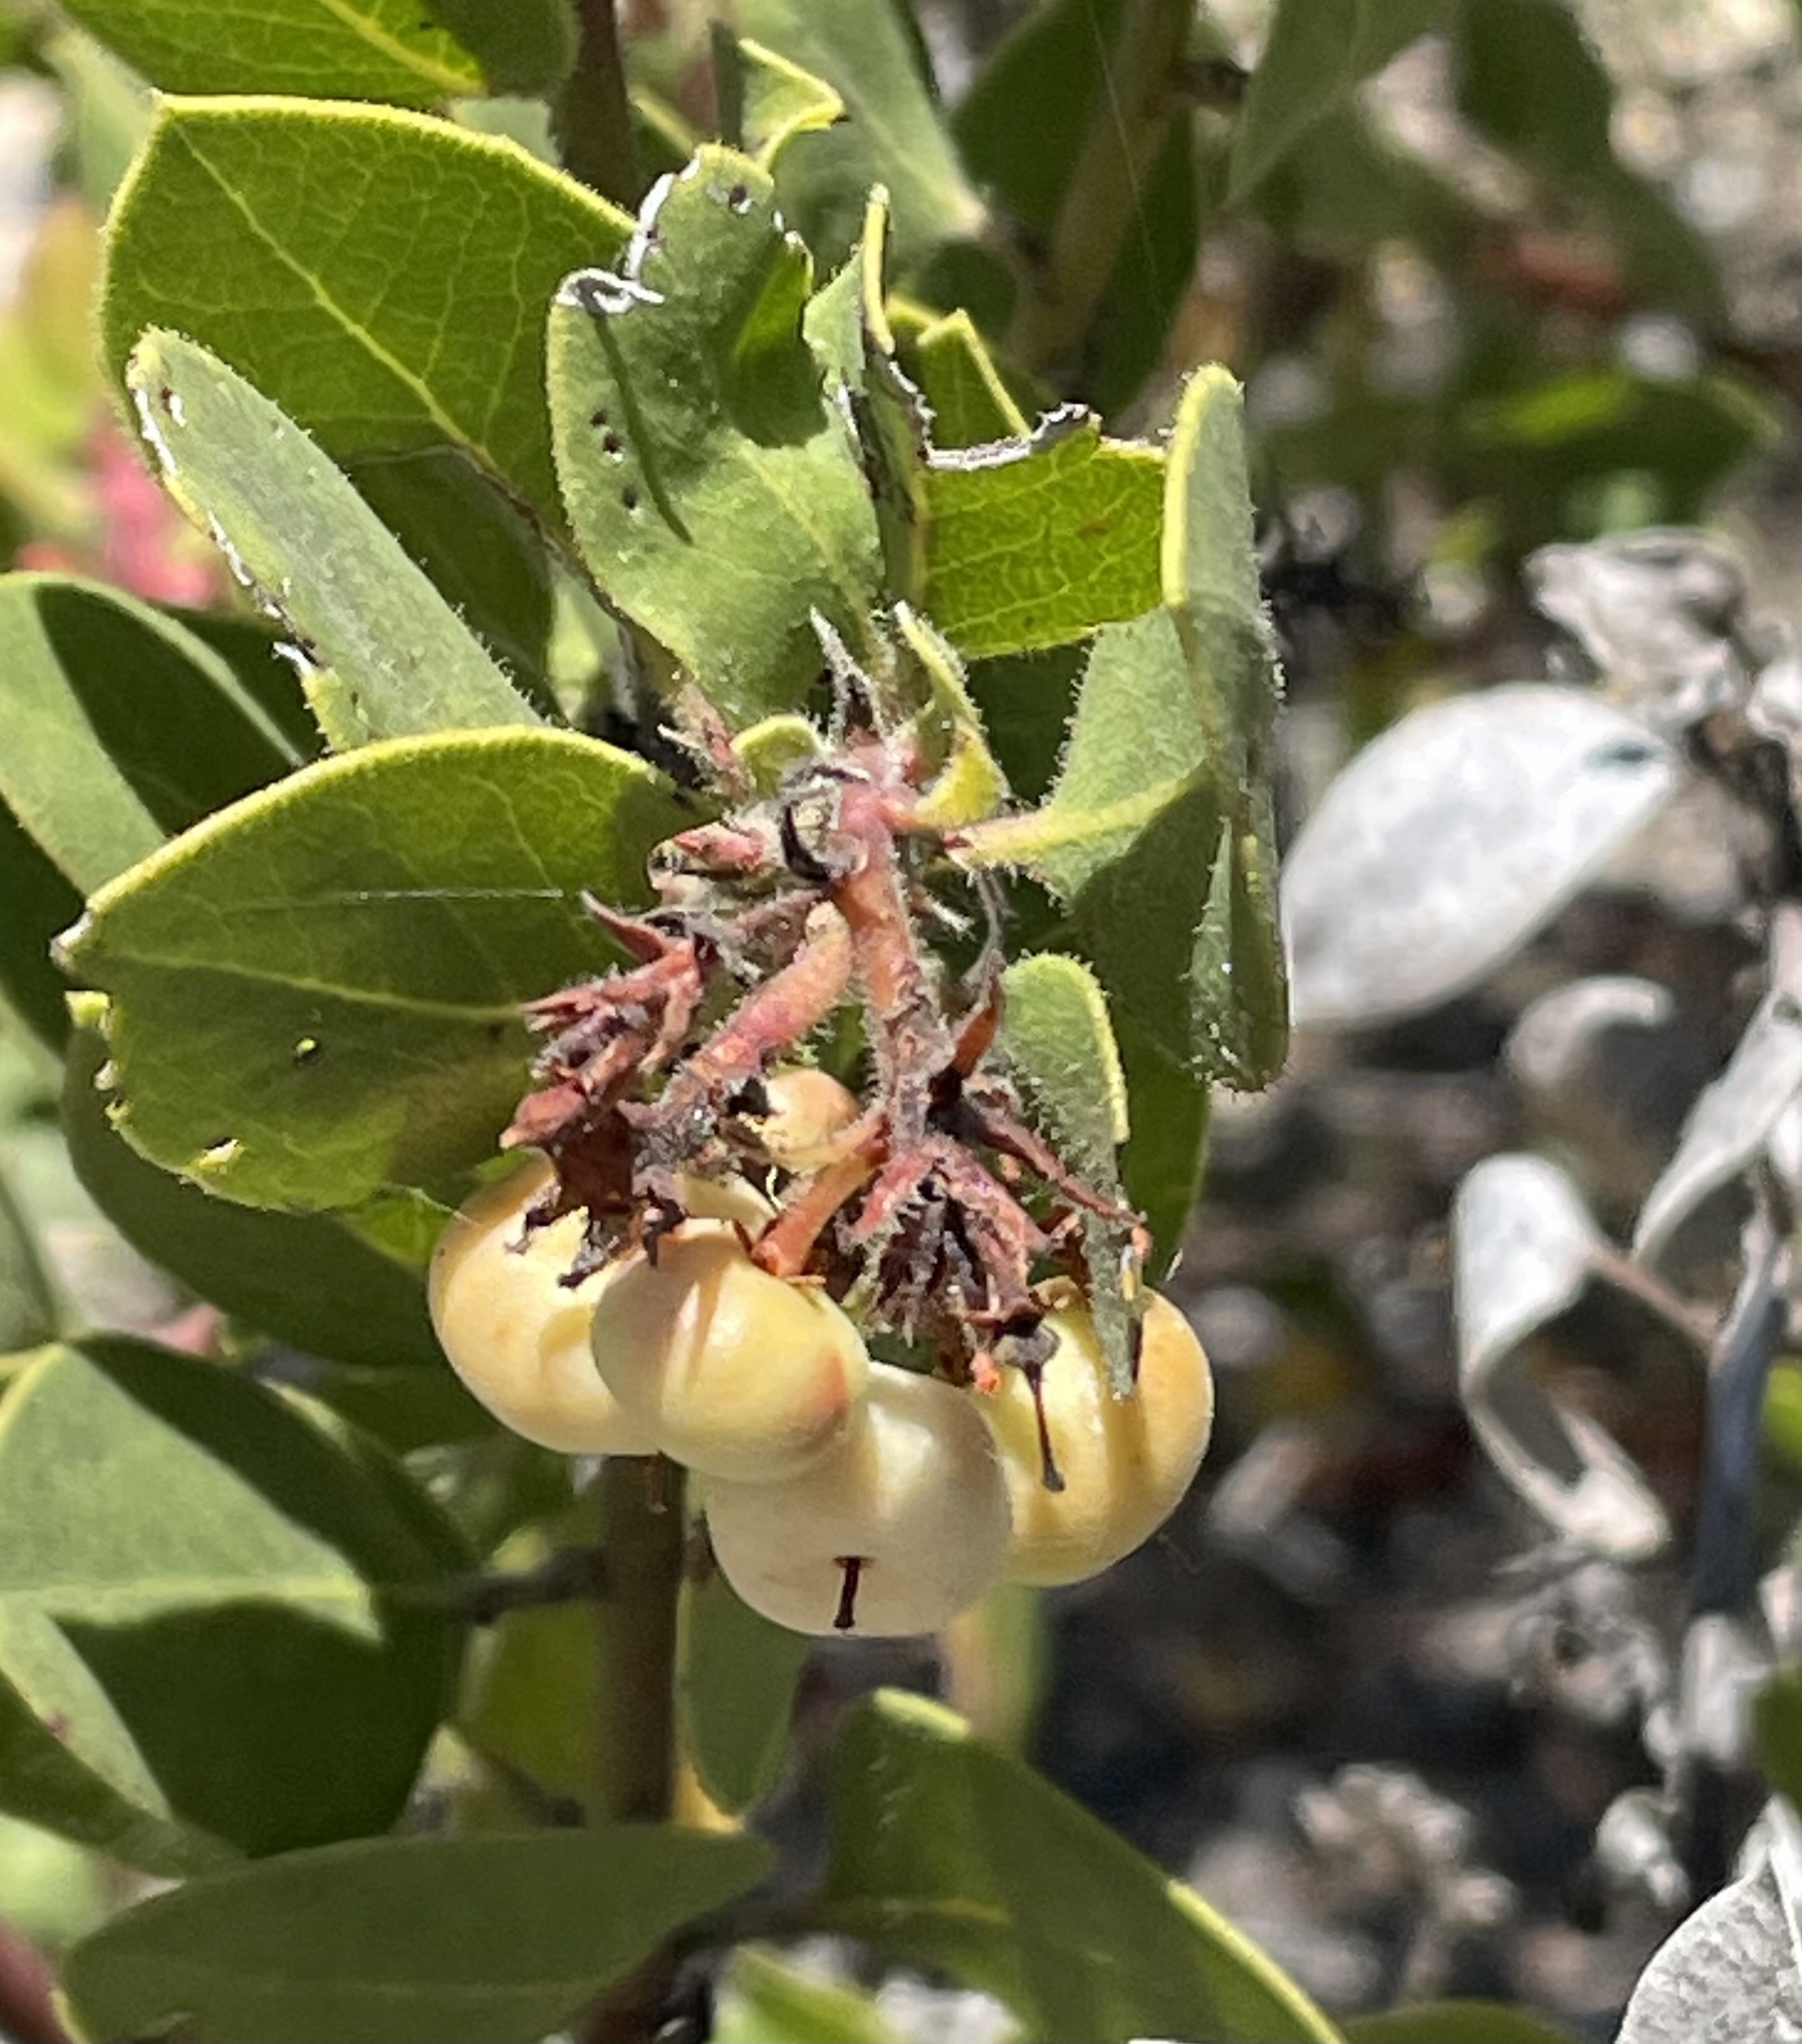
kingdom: Plantae
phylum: Tracheophyta
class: Magnoliopsida
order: Ericales
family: Ericaceae
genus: Arctostaphylos
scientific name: Arctostaphylos montereyensis
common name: Monterey manzanita
